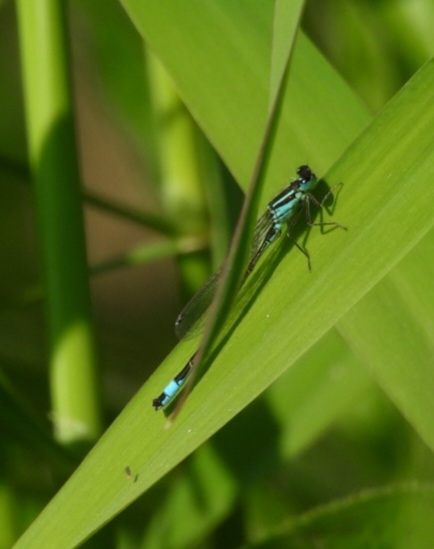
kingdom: Animalia
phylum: Arthropoda
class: Insecta
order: Odonata
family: Coenagrionidae
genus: Ischnura
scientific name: Ischnura elegans
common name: Blue-tailed damselfly
